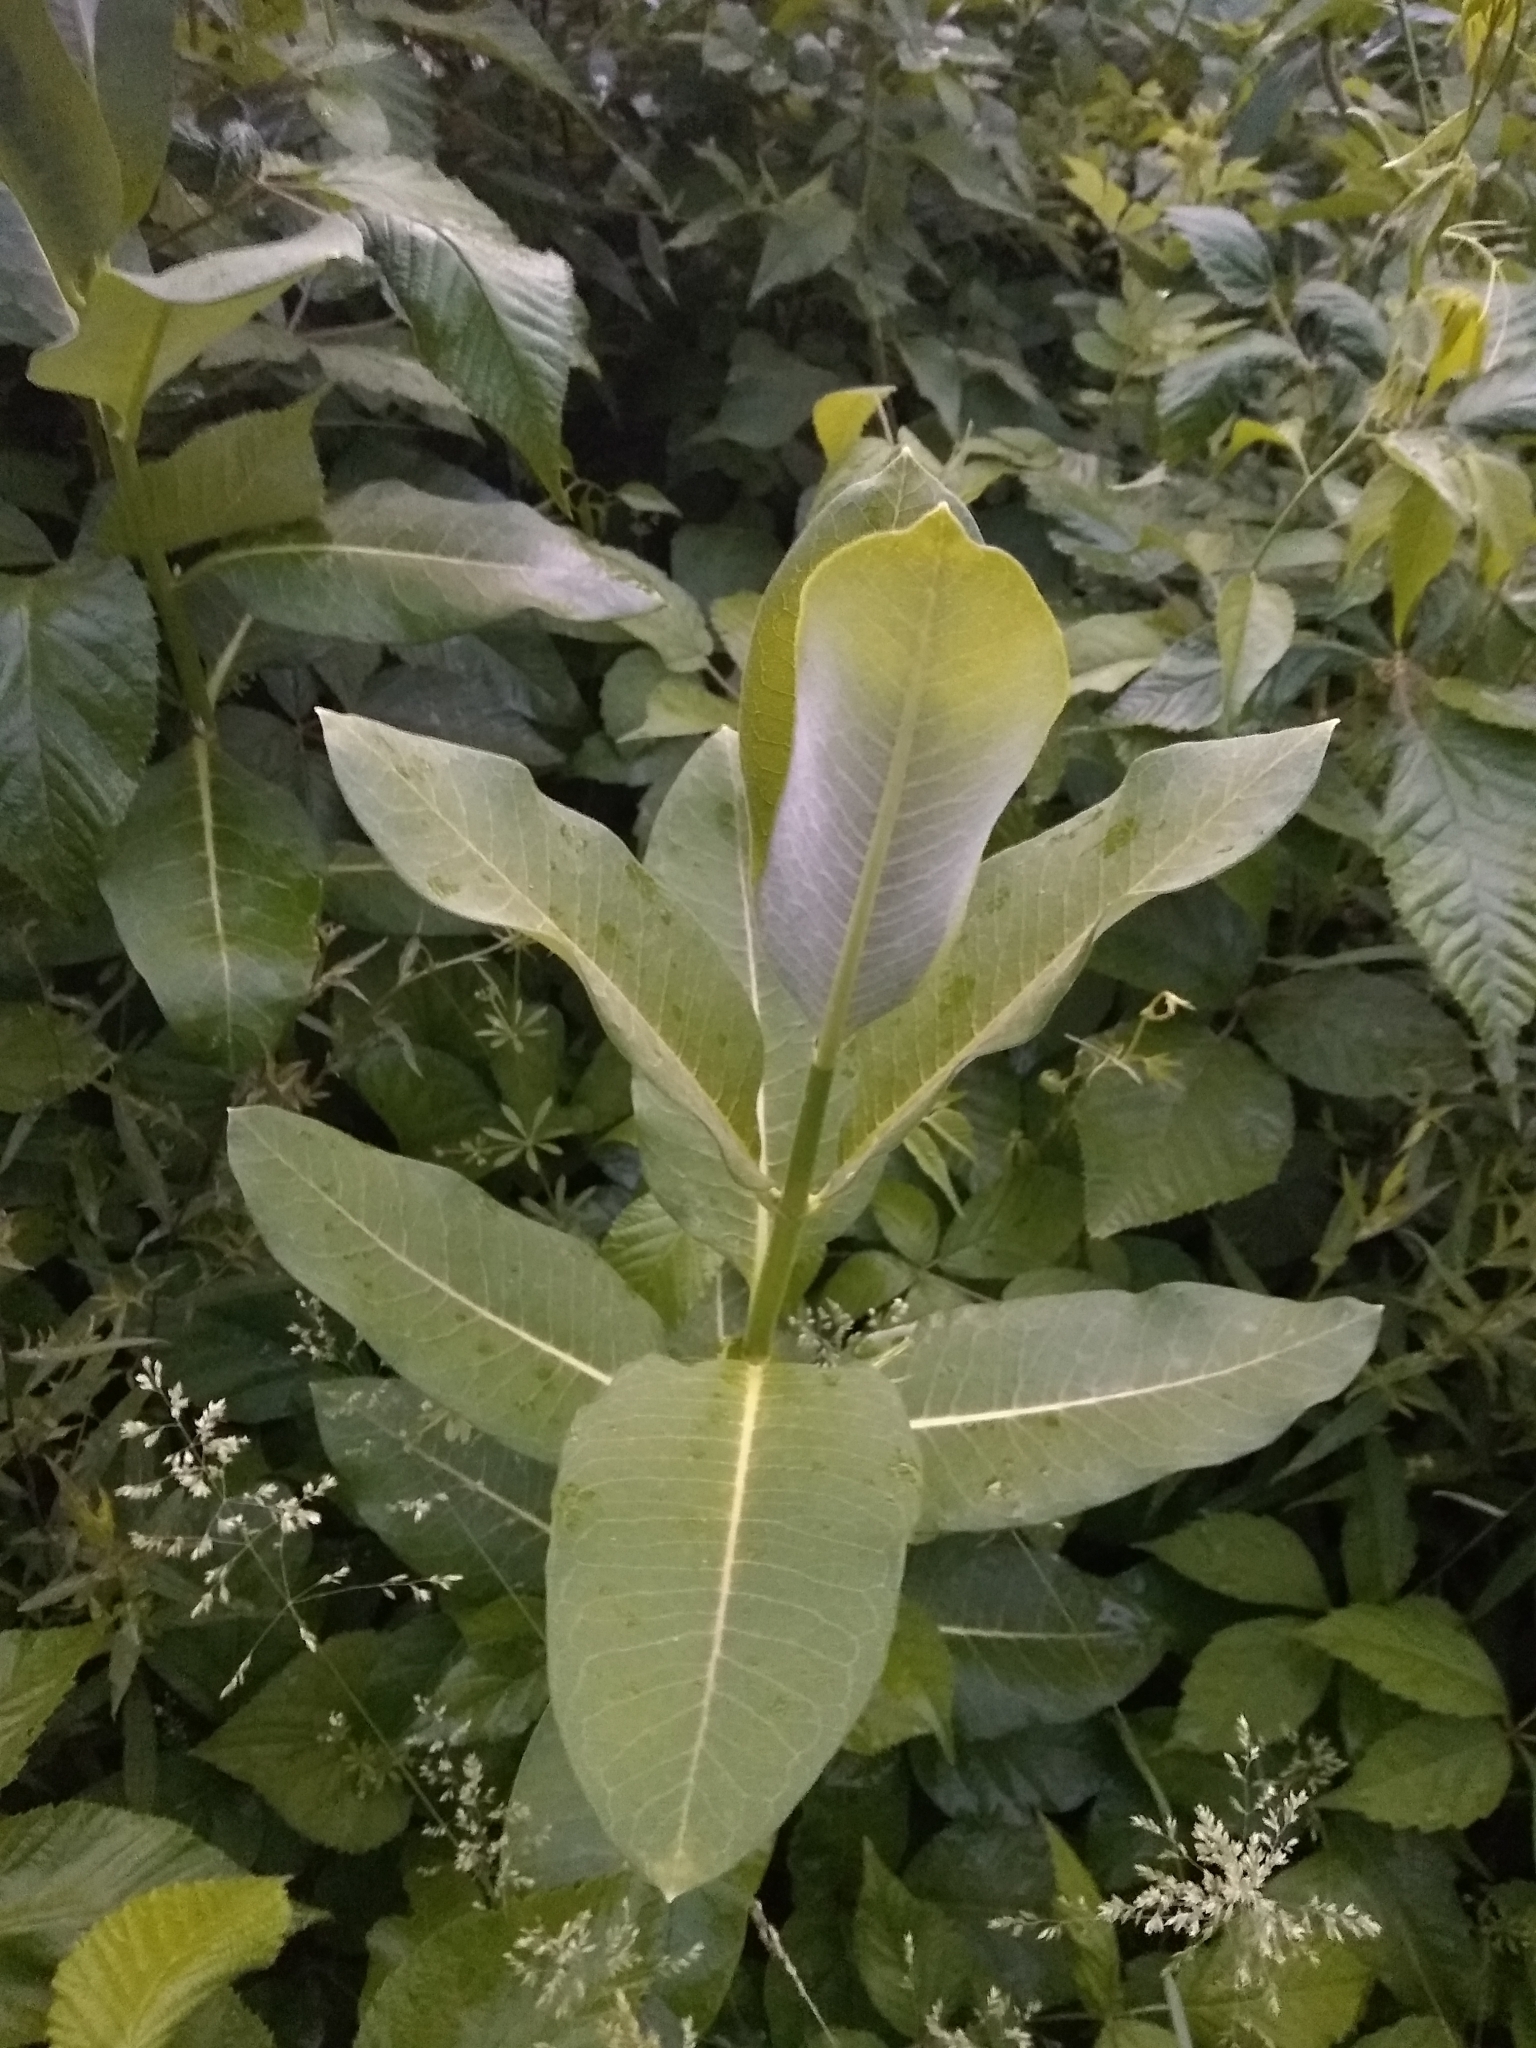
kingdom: Plantae
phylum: Tracheophyta
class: Magnoliopsida
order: Gentianales
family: Apocynaceae
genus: Asclepias
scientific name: Asclepias syriaca
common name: Common milkweed
